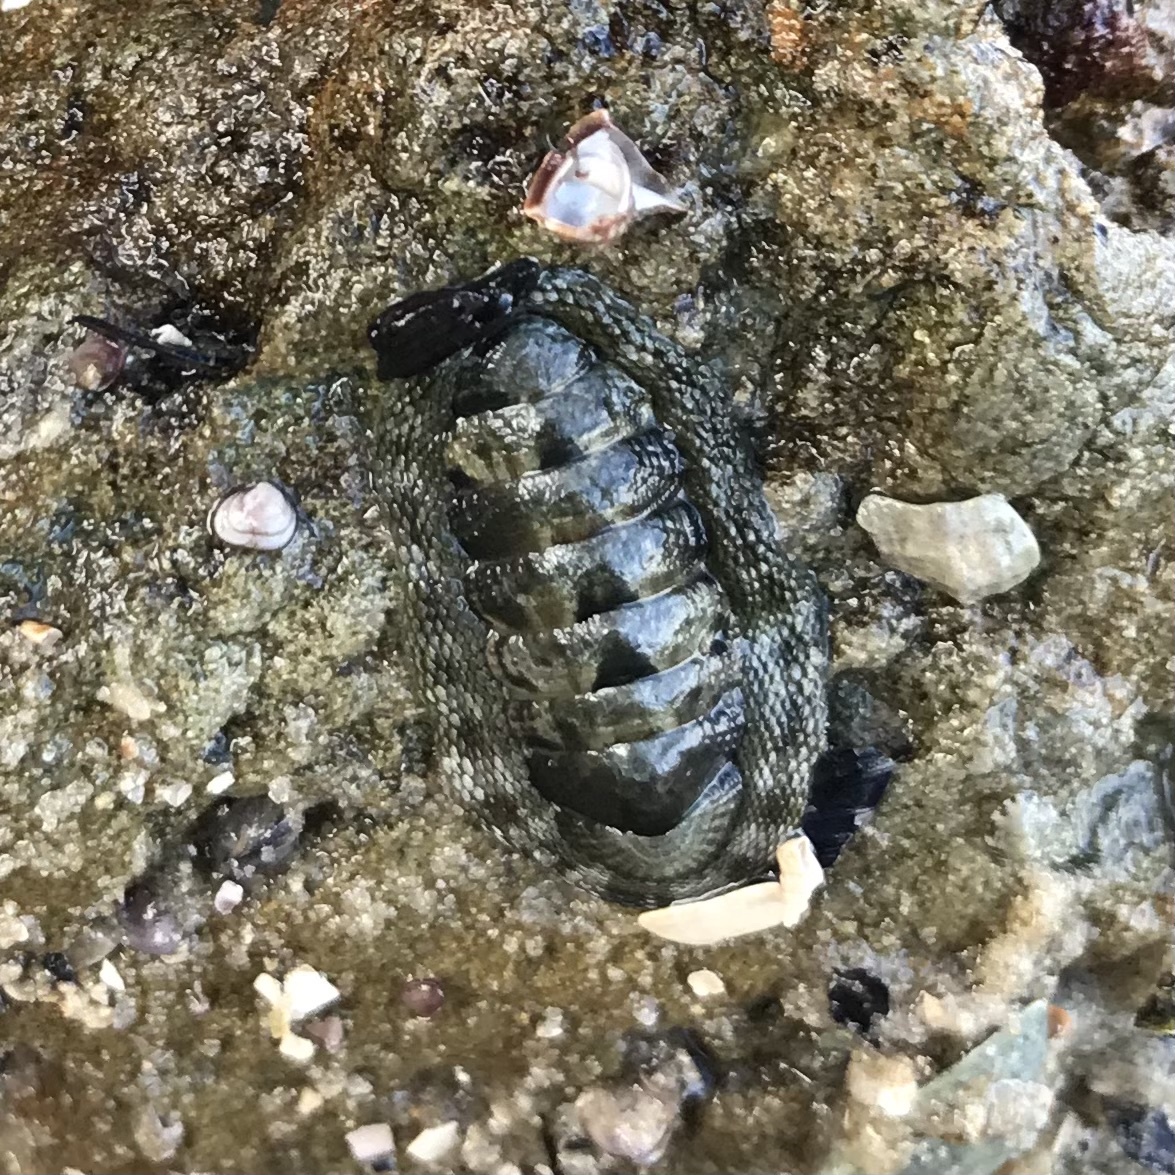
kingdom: Animalia
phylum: Mollusca
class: Polyplacophora
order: Chitonida
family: Chitonidae
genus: Sypharochiton
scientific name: Sypharochiton pelliserpentis
